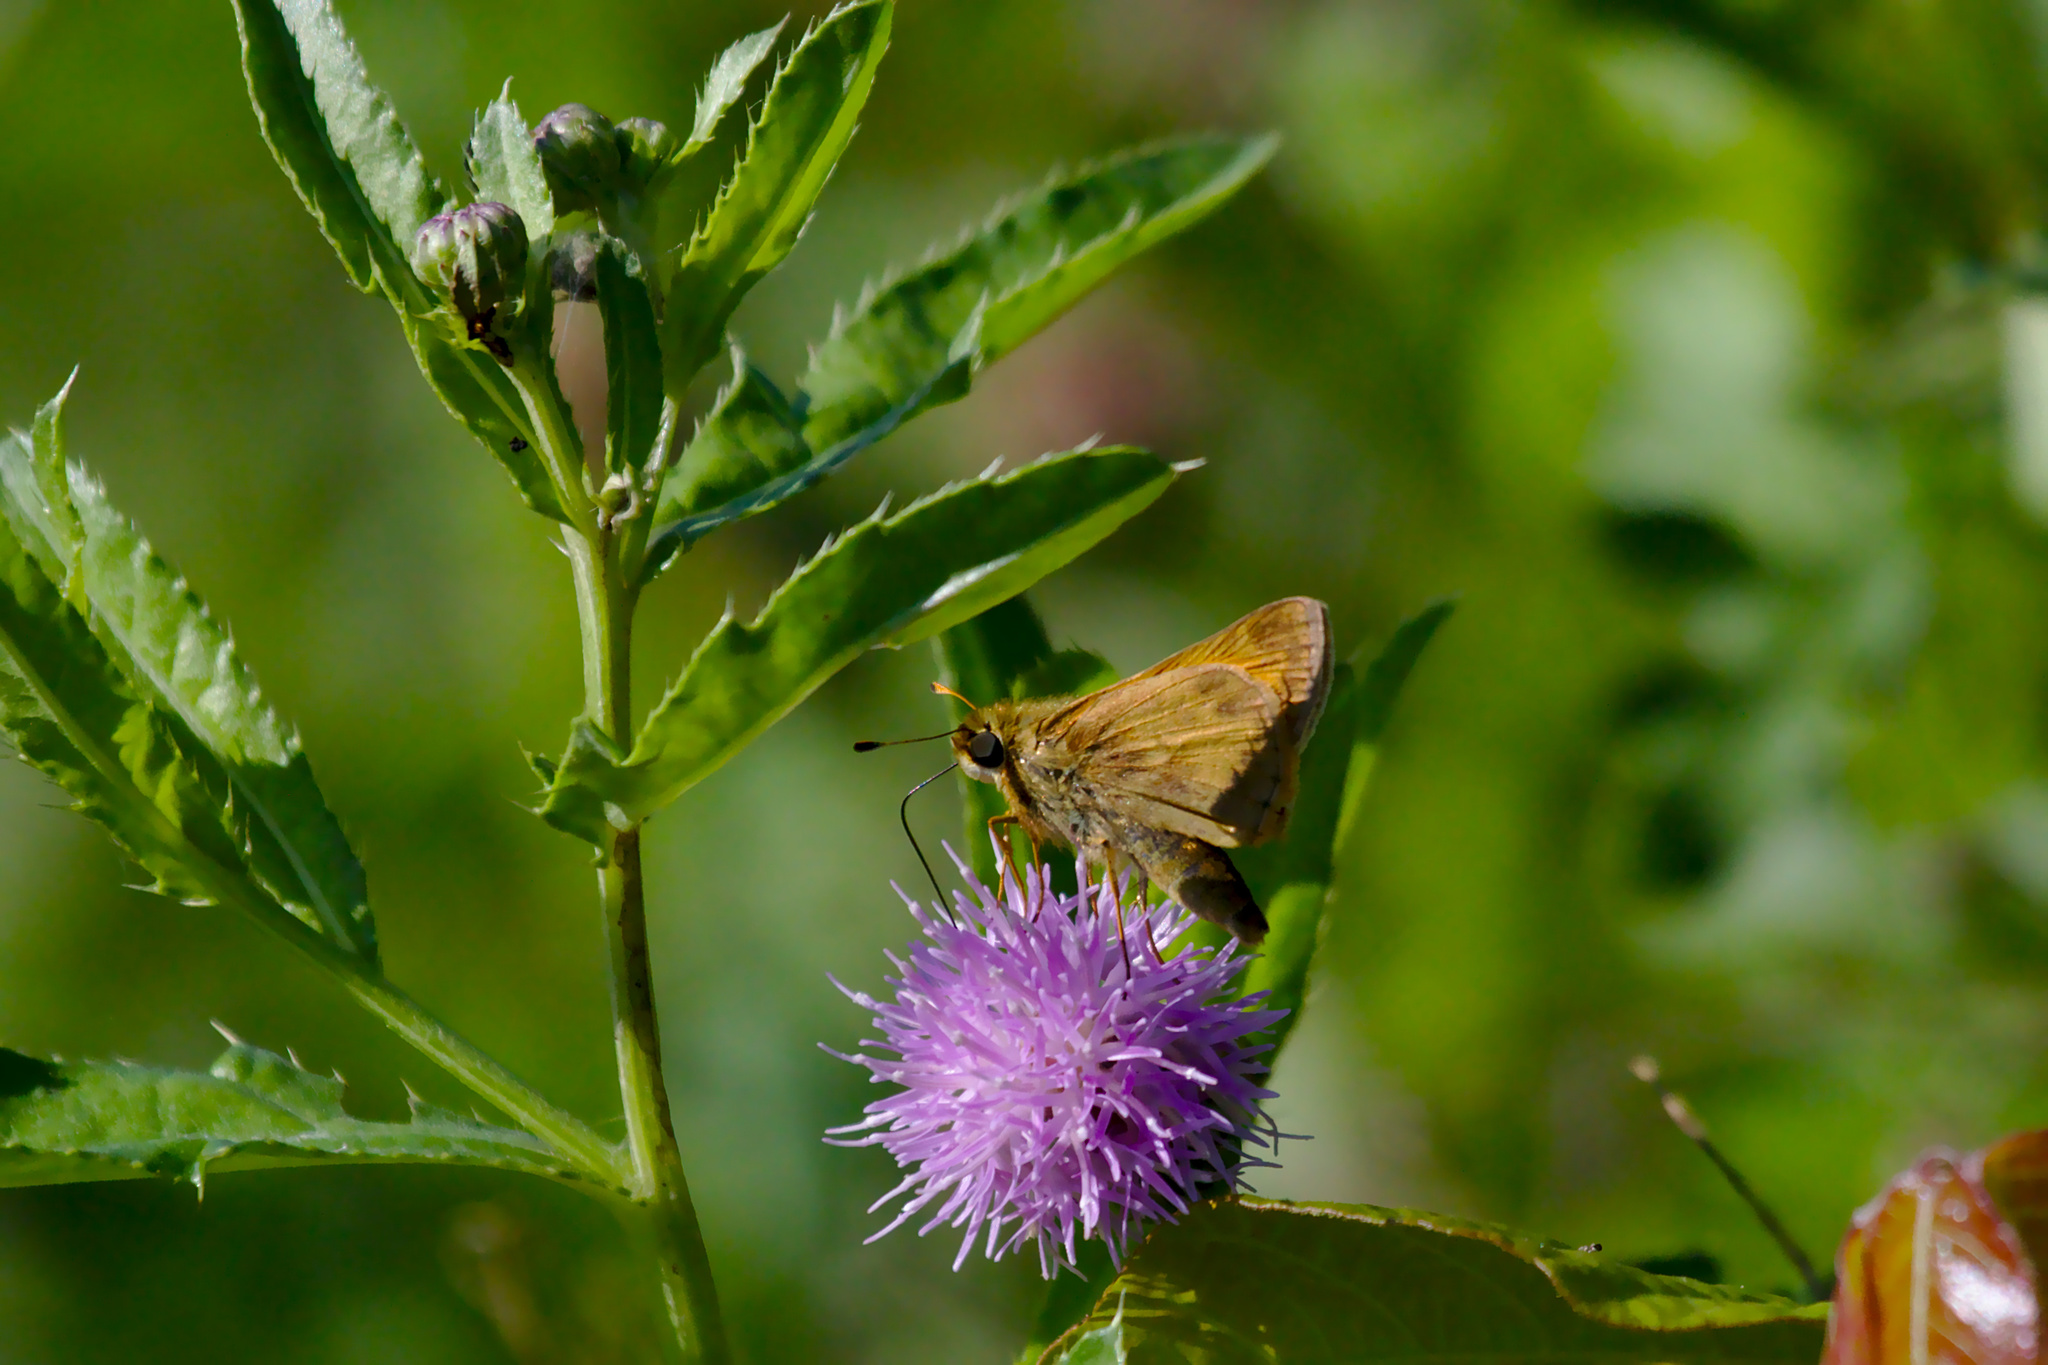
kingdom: Animalia
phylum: Arthropoda
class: Insecta
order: Lepidoptera
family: Hesperiidae
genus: Atalopedes
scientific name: Atalopedes
